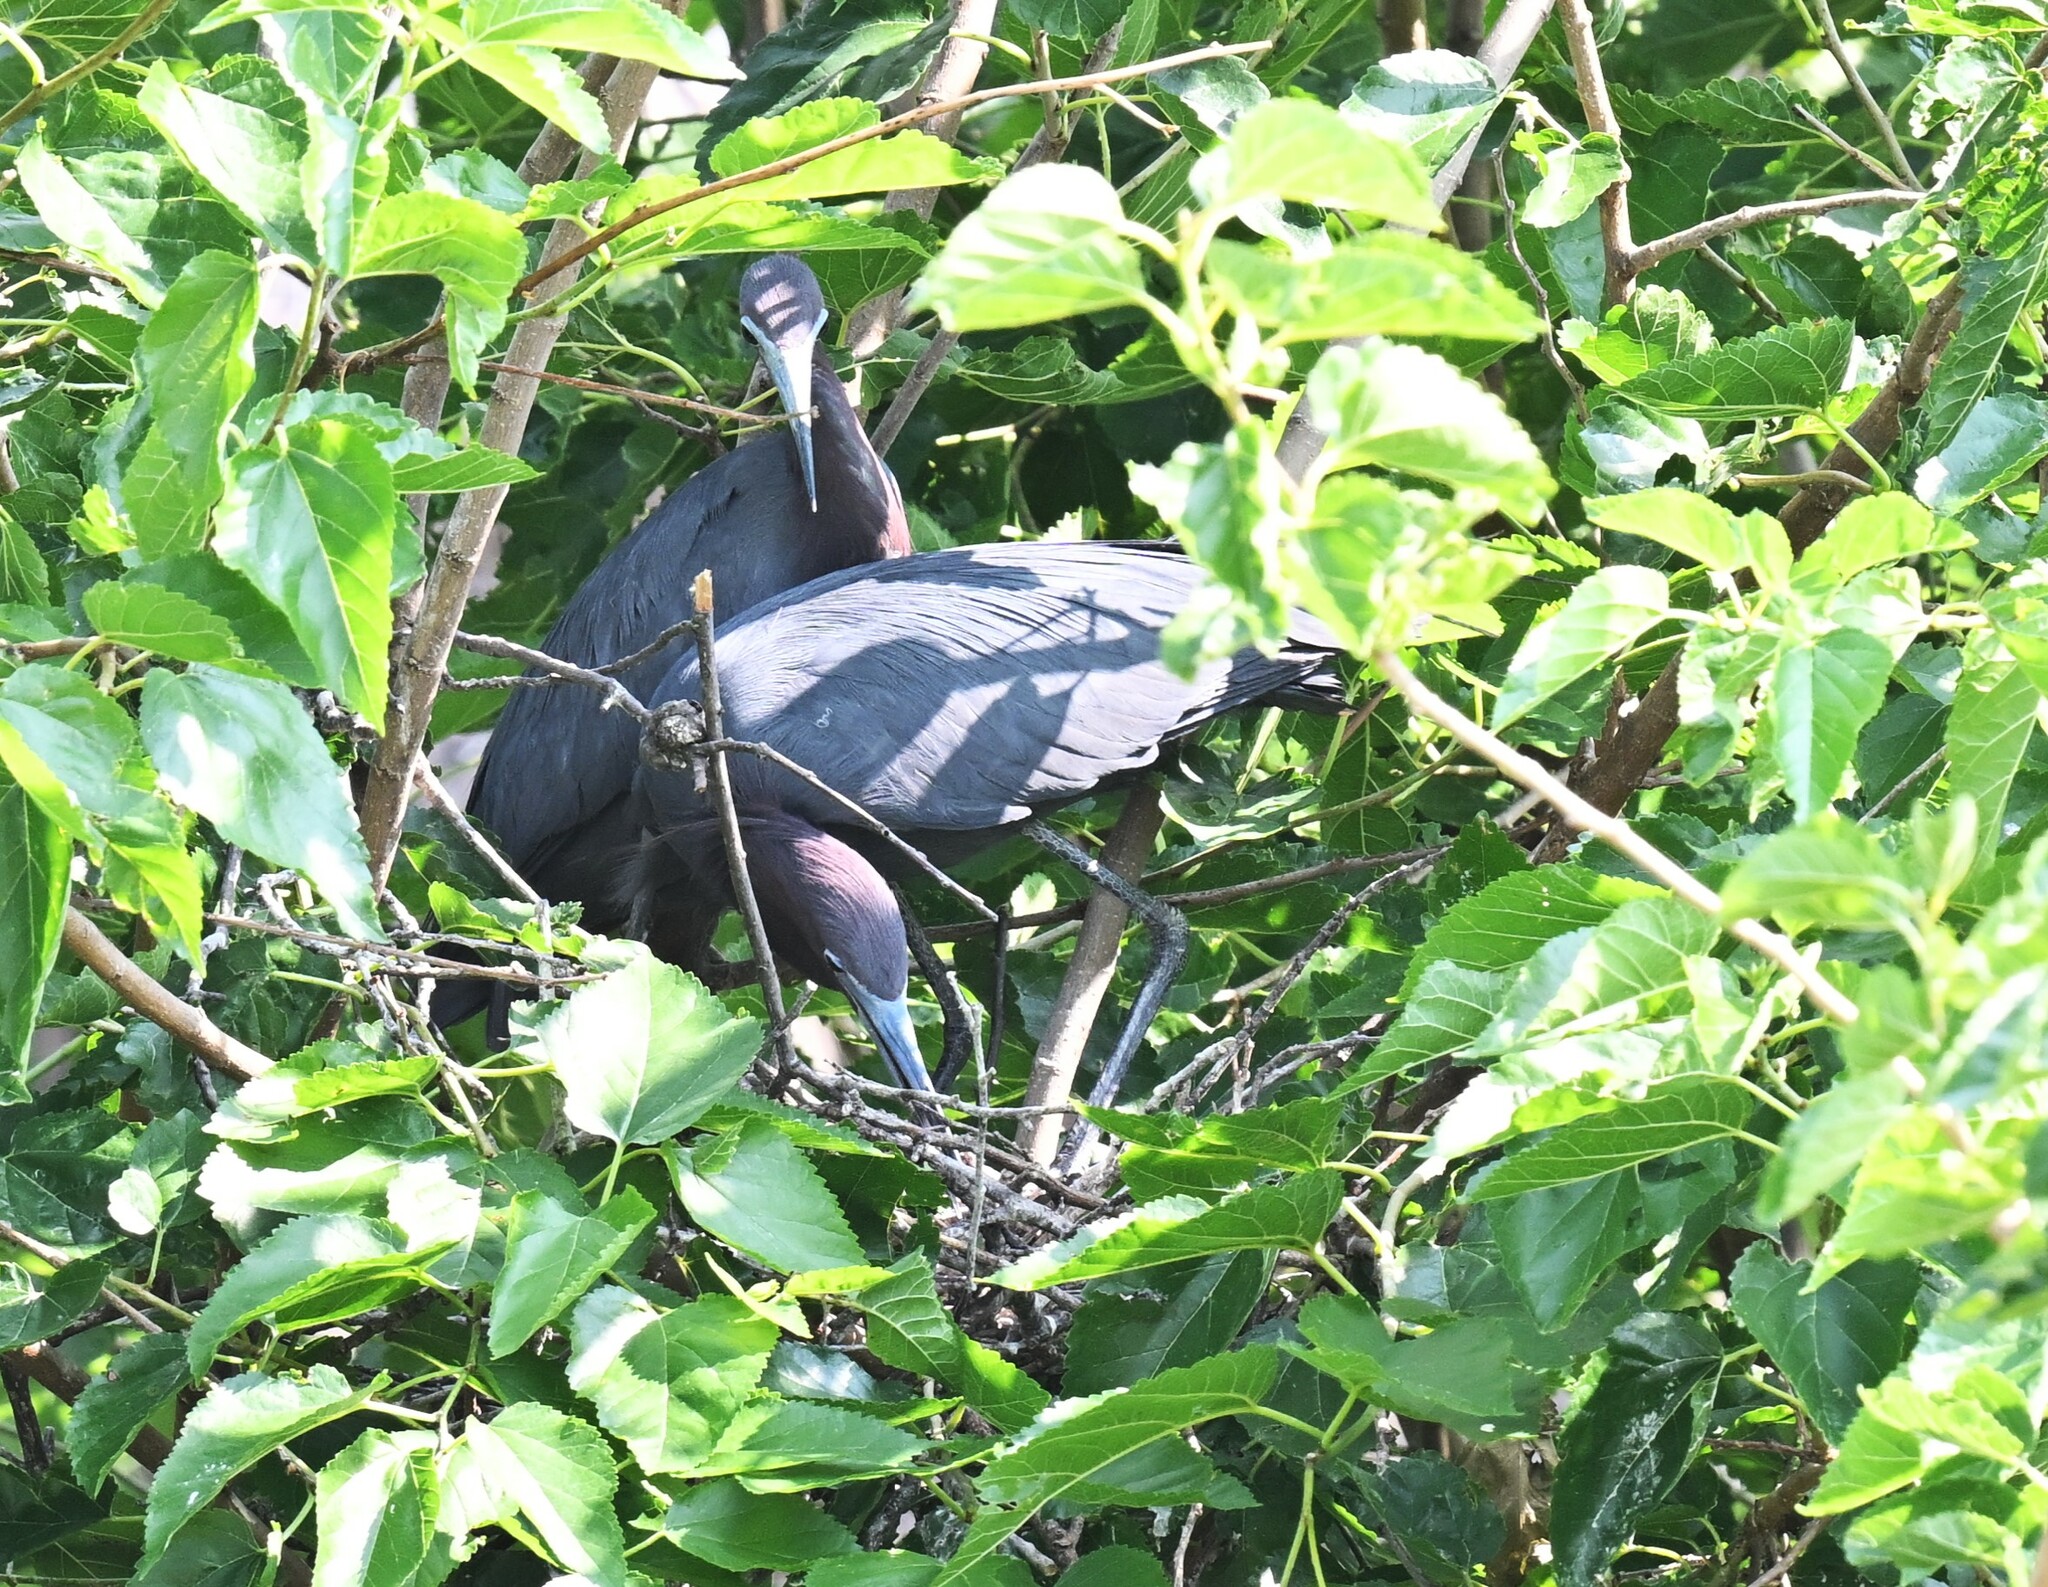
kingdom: Animalia
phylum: Chordata
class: Aves
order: Pelecaniformes
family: Ardeidae
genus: Egretta
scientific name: Egretta caerulea
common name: Little blue heron
